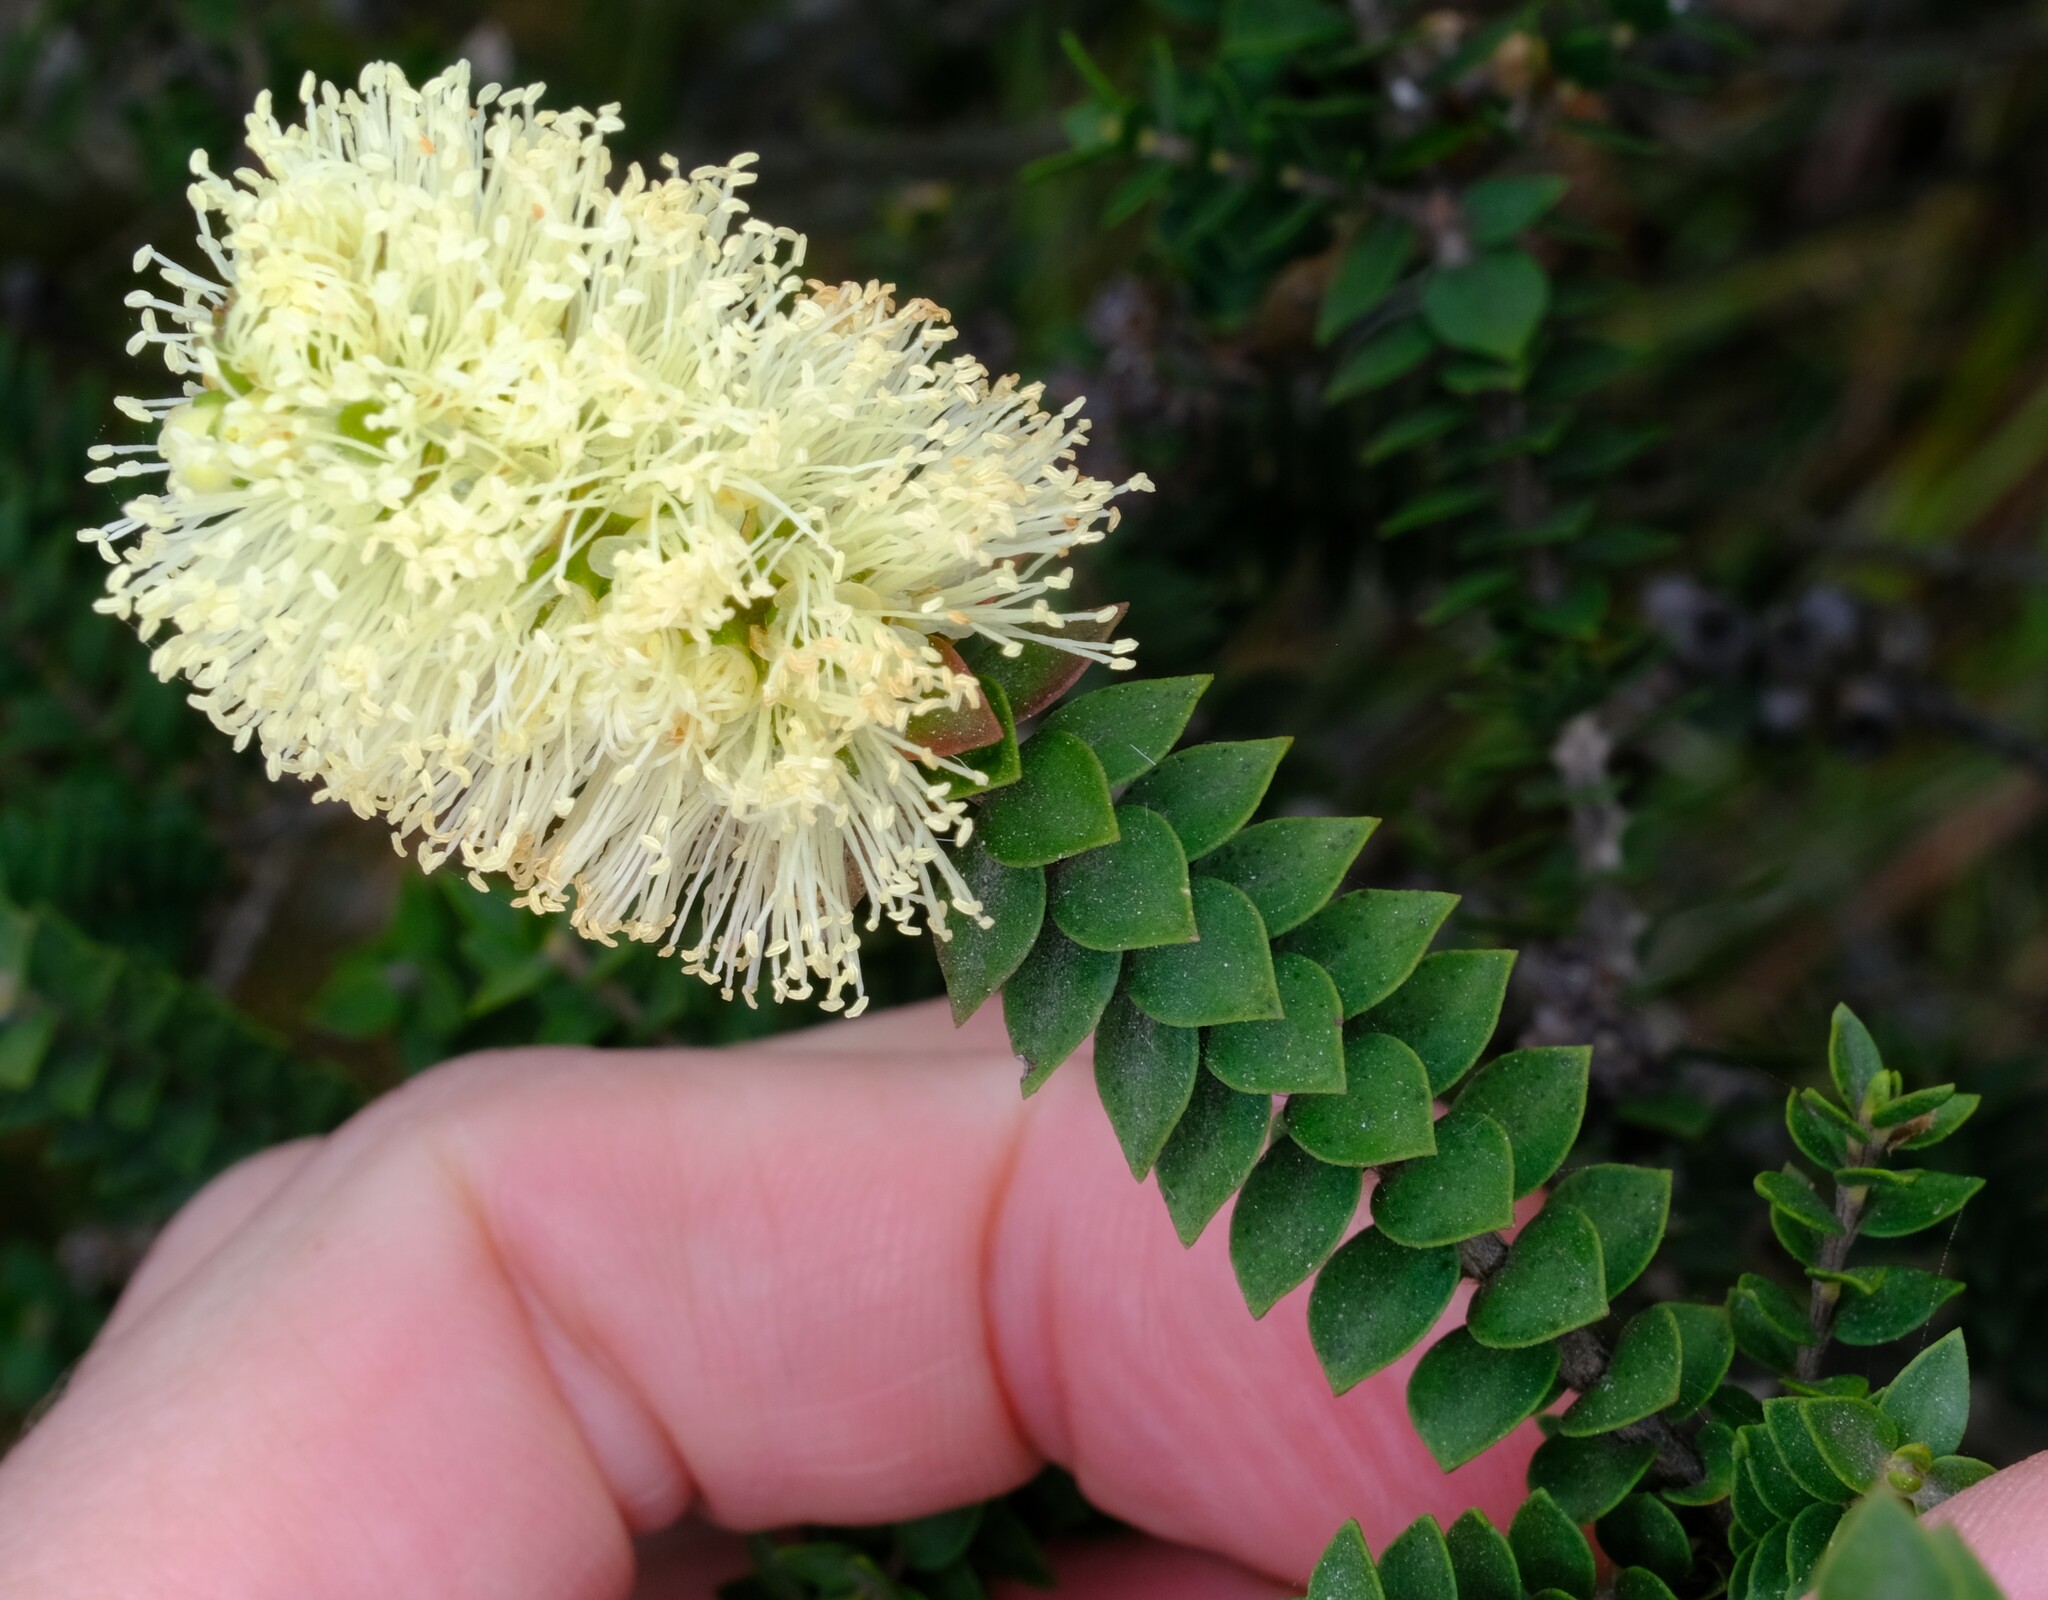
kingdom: Plantae
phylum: Tracheophyta
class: Magnoliopsida
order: Myrtales
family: Myrtaceae
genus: Melaleuca
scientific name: Melaleuca squarrosa
